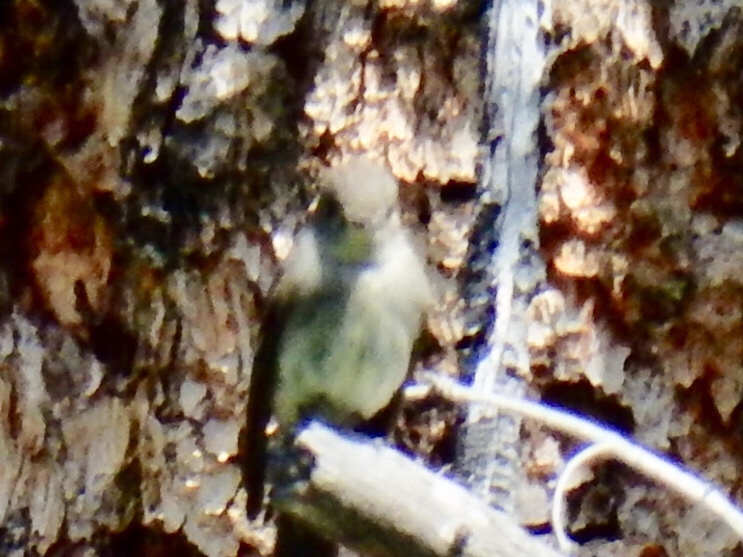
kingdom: Animalia
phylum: Chordata
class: Aves
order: Passeriformes
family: Tyrannidae
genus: Contopus
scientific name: Contopus sordidulus
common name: Western wood-pewee
